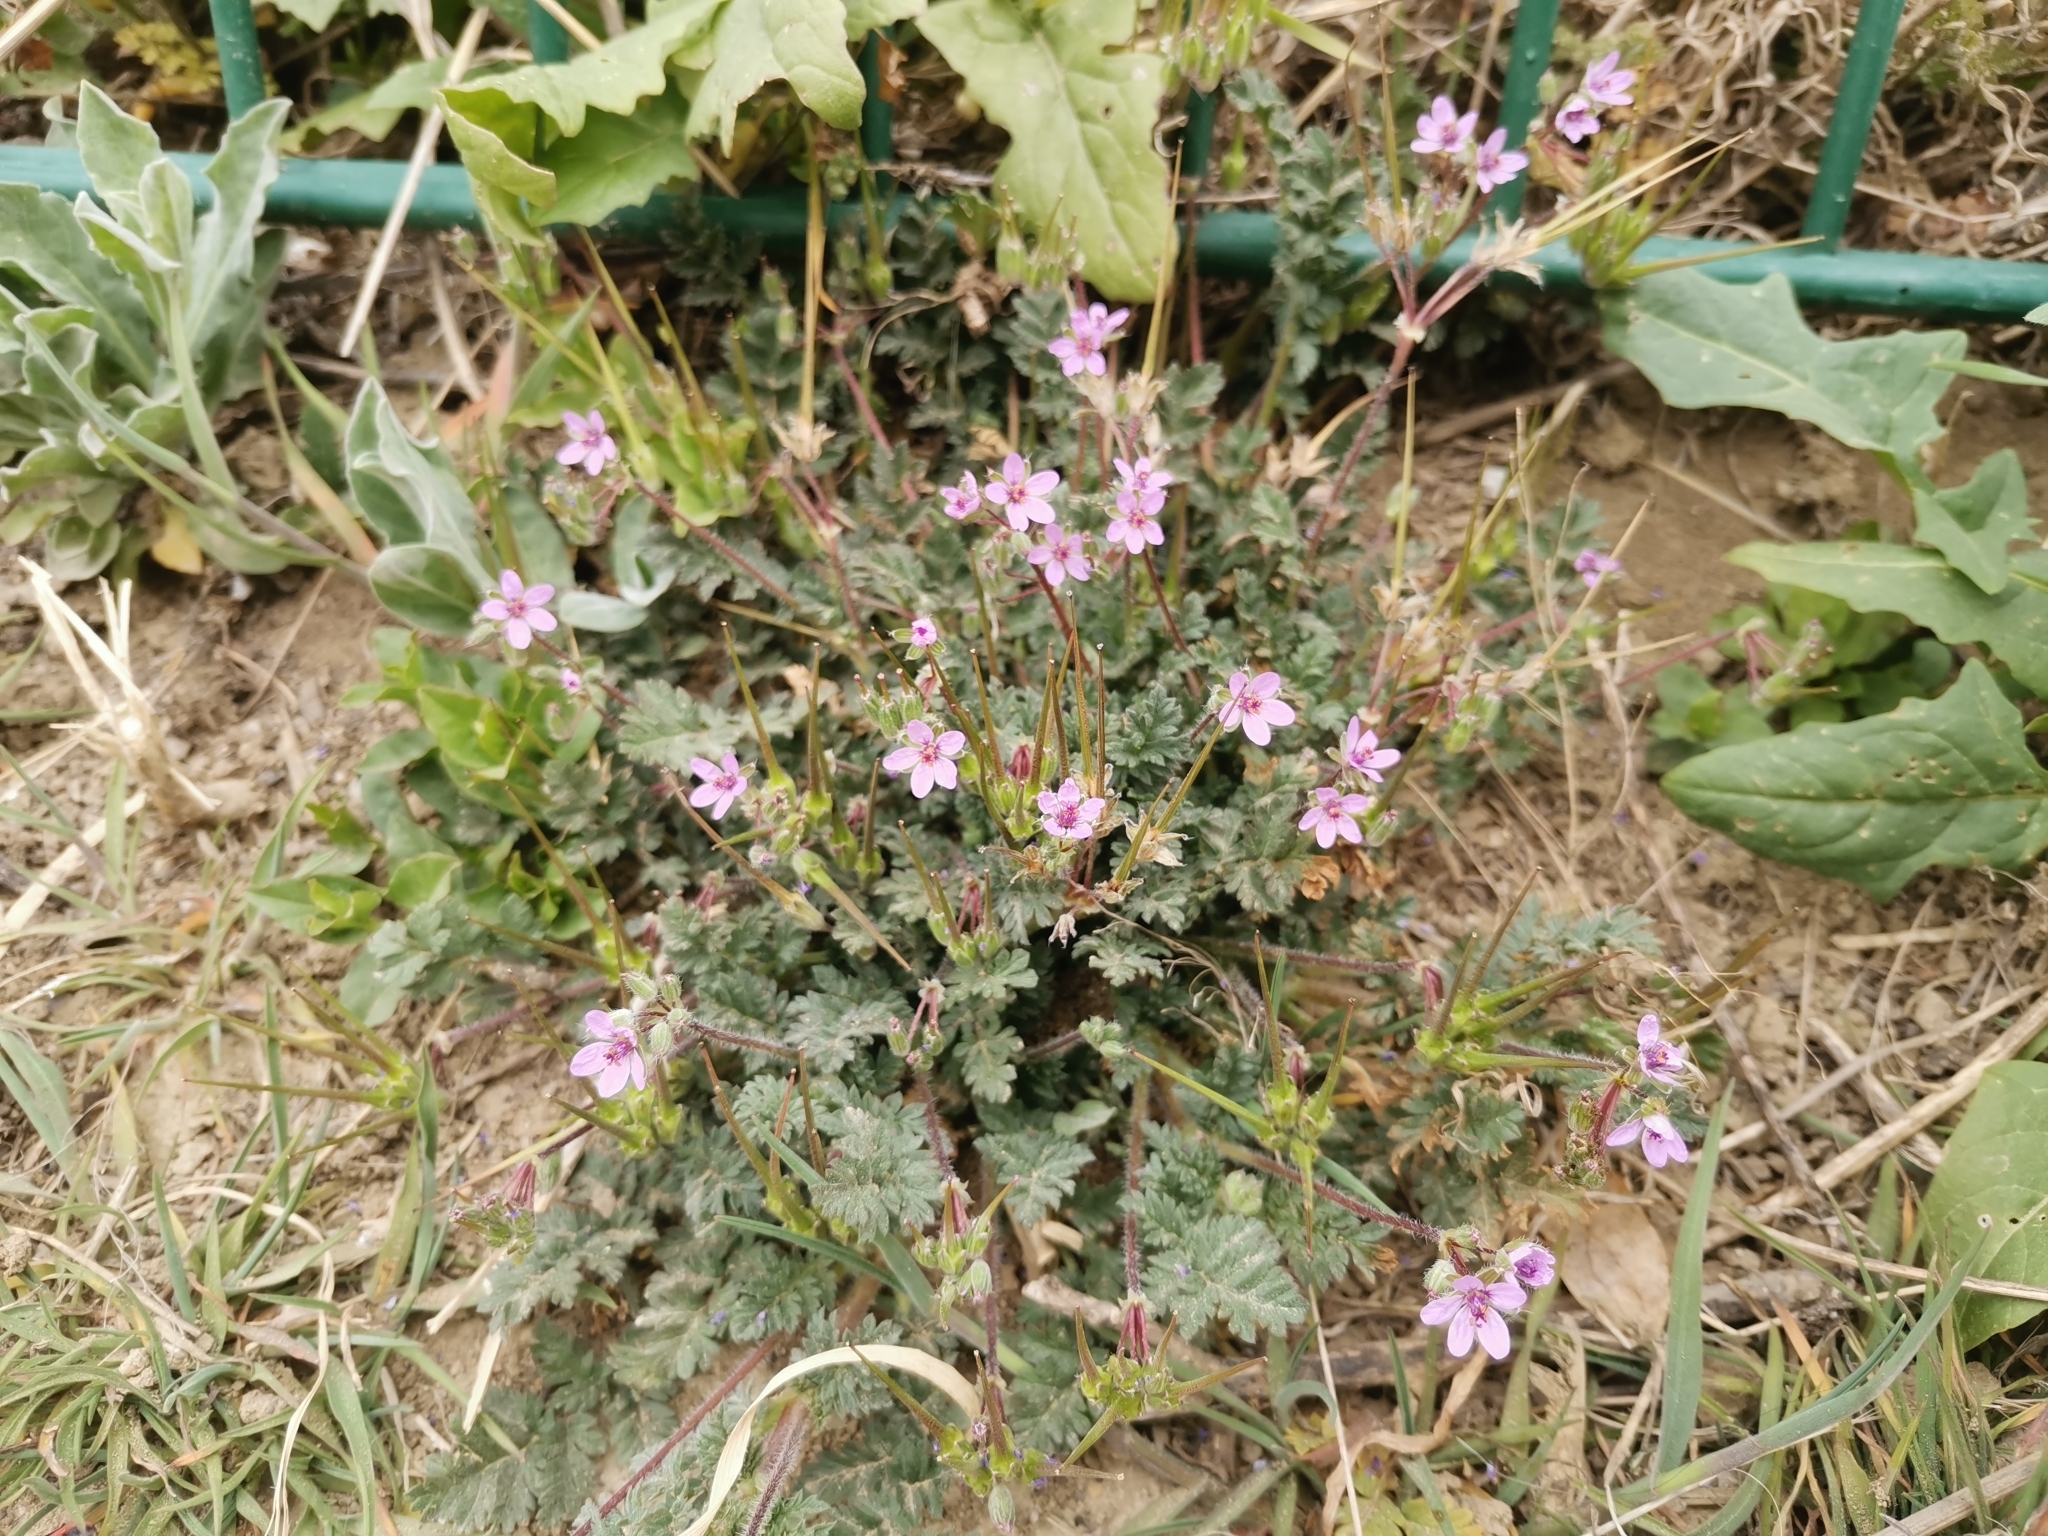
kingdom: Plantae
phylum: Tracheophyta
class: Magnoliopsida
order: Geraniales
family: Geraniaceae
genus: Erodium
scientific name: Erodium cicutarium
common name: Common stork's-bill
